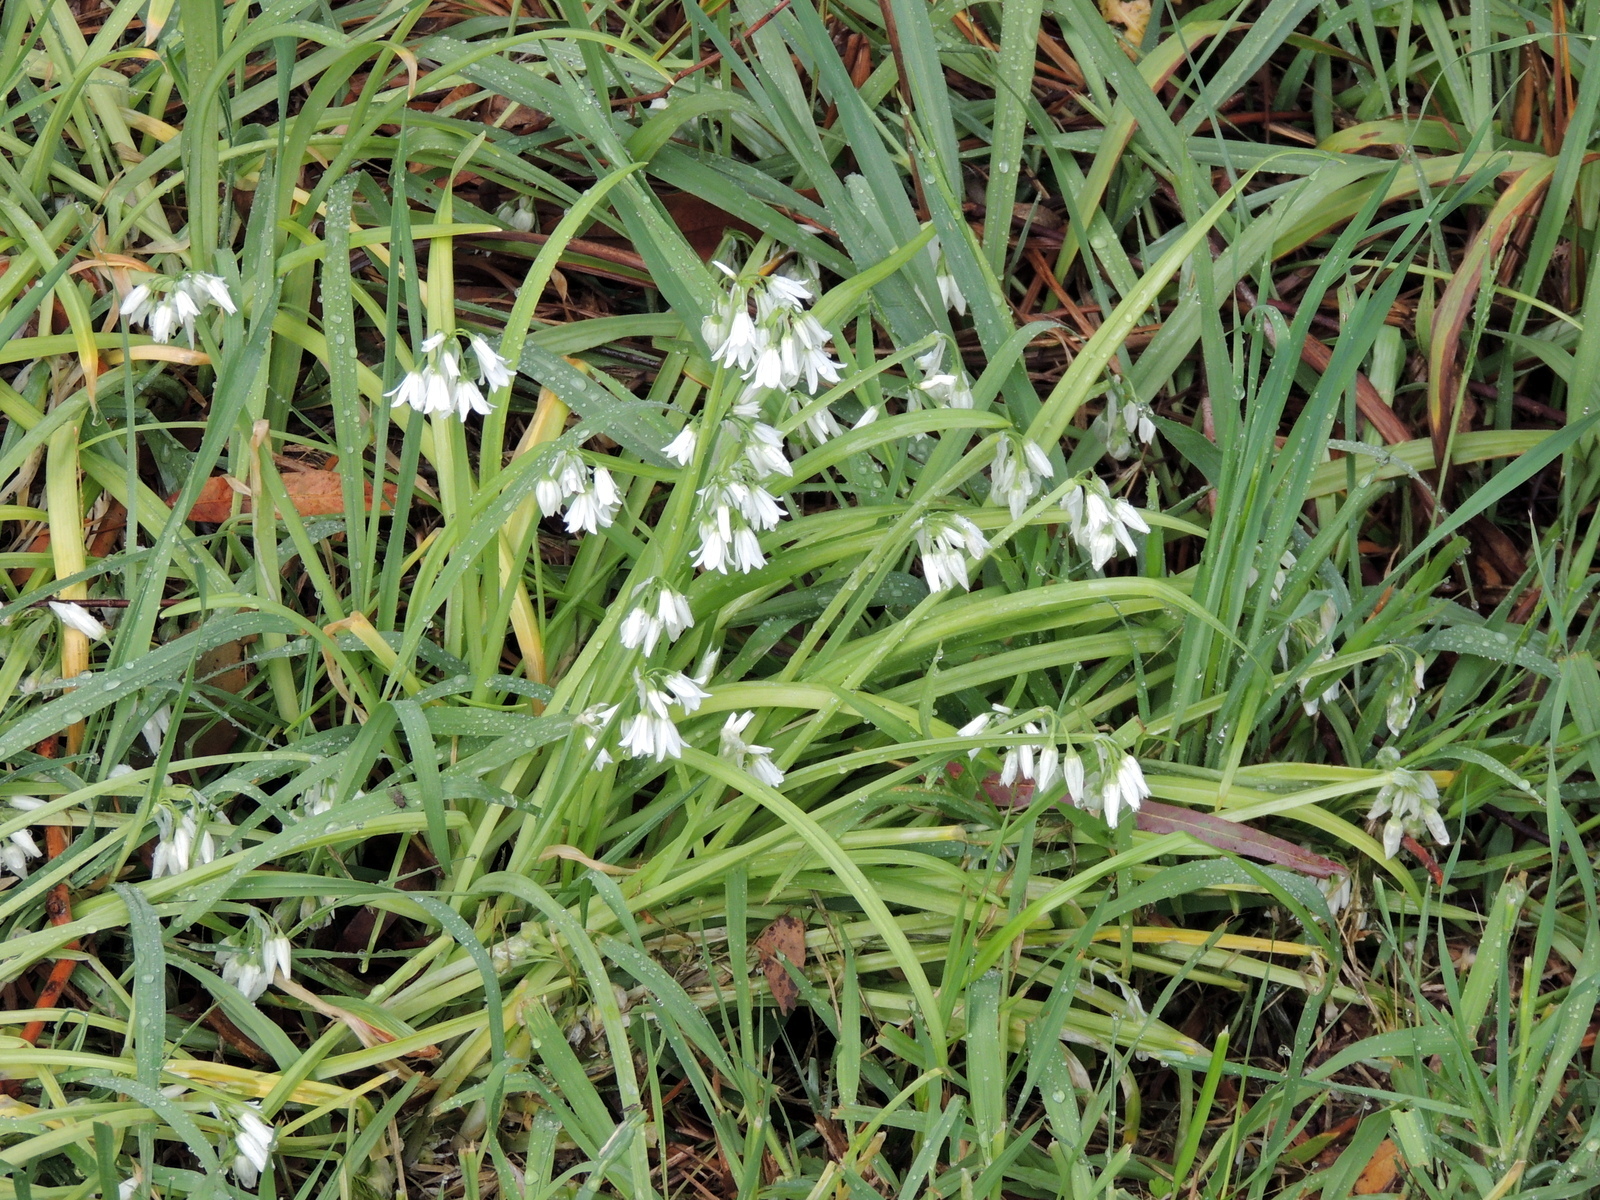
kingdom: Plantae
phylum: Tracheophyta
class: Liliopsida
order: Asparagales
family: Amaryllidaceae
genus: Allium
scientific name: Allium triquetrum
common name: Three-cornered garlic
